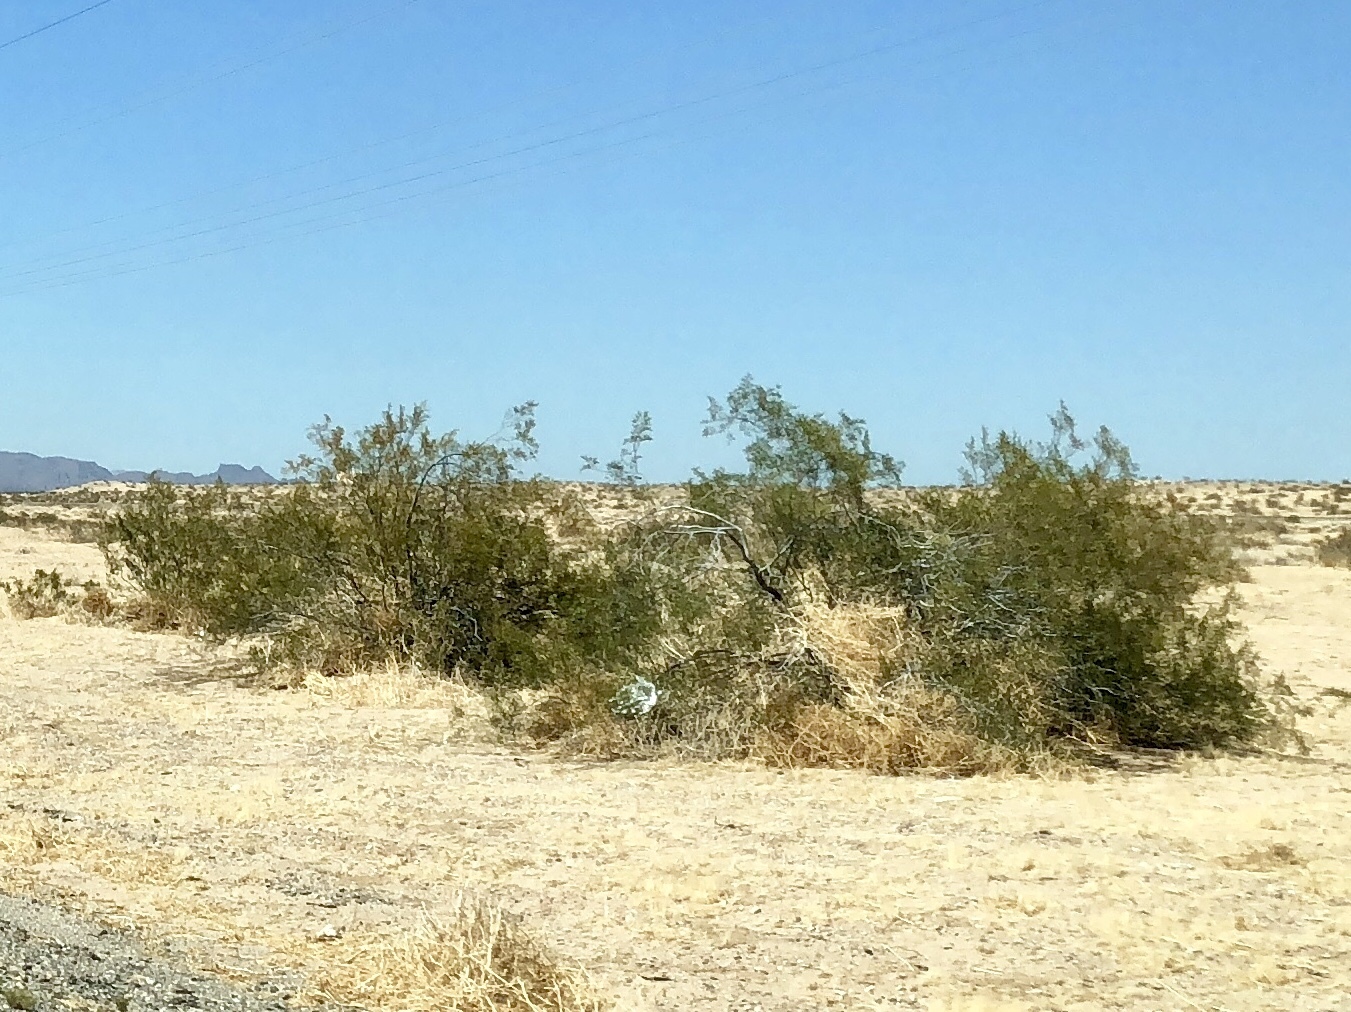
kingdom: Plantae
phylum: Tracheophyta
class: Magnoliopsida
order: Zygophyllales
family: Zygophyllaceae
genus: Larrea
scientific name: Larrea tridentata
